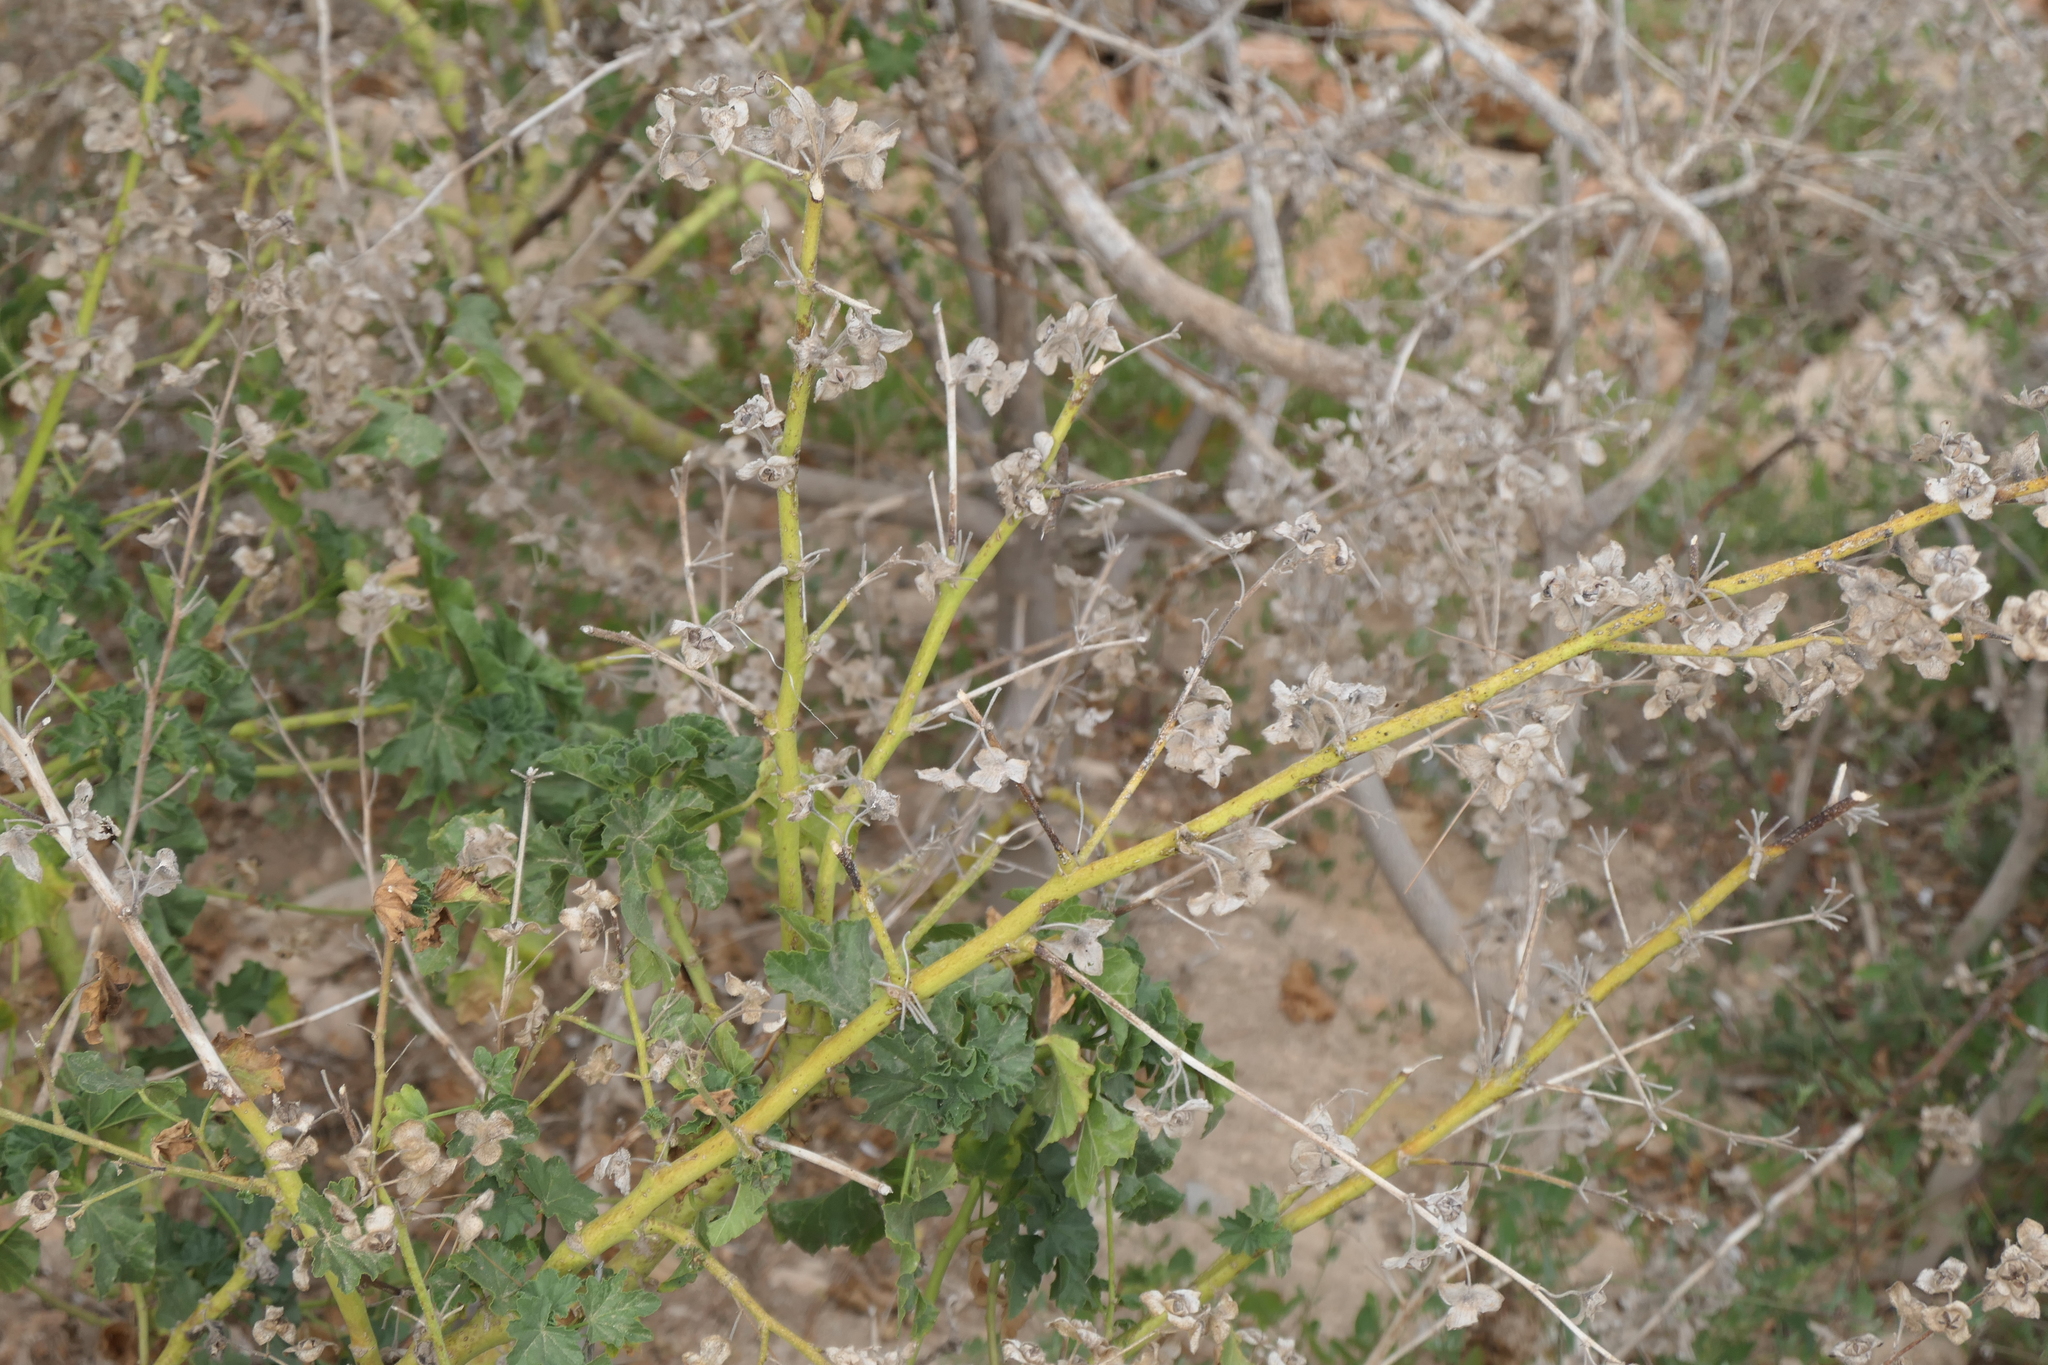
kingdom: Plantae
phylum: Tracheophyta
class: Magnoliopsida
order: Malvales
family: Malvaceae
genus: Malva
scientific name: Malva arborea
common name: Tree mallow
